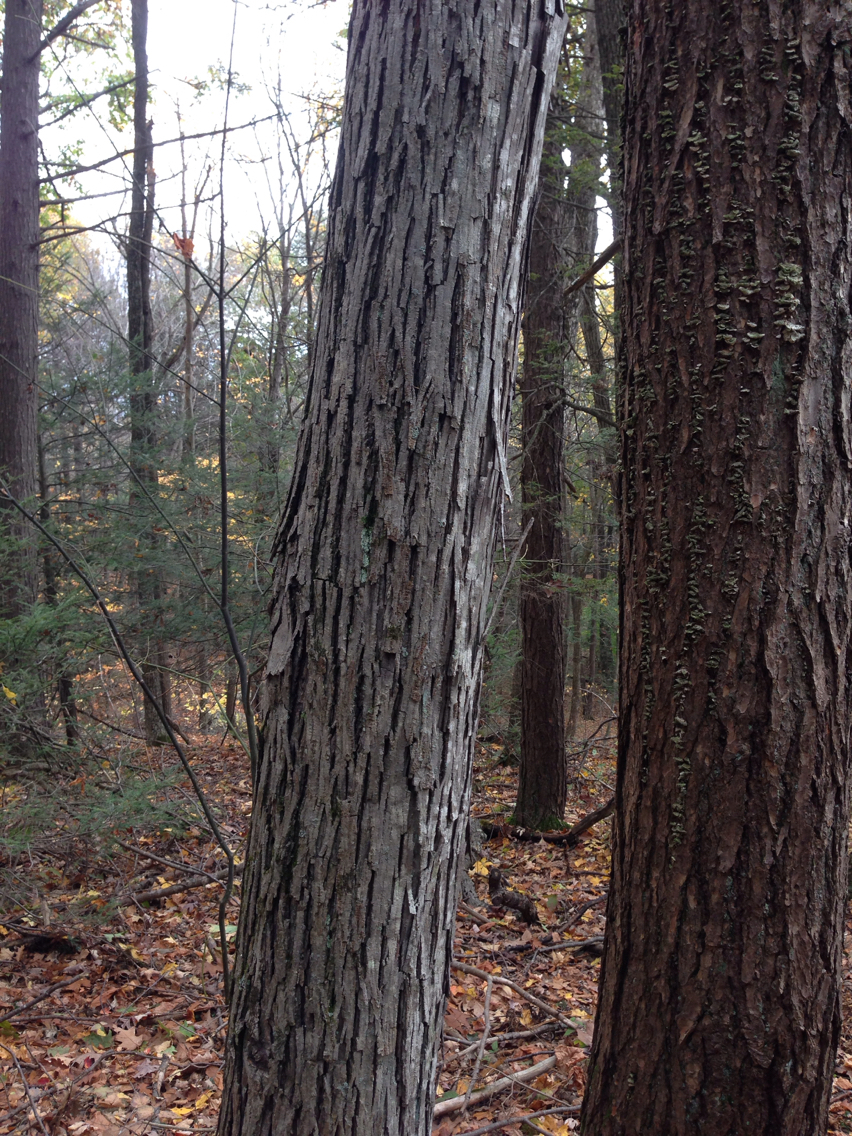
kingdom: Plantae
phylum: Tracheophyta
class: Magnoliopsida
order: Fagales
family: Juglandaceae
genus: Carya
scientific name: Carya ovata
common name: Shagbark hickory
